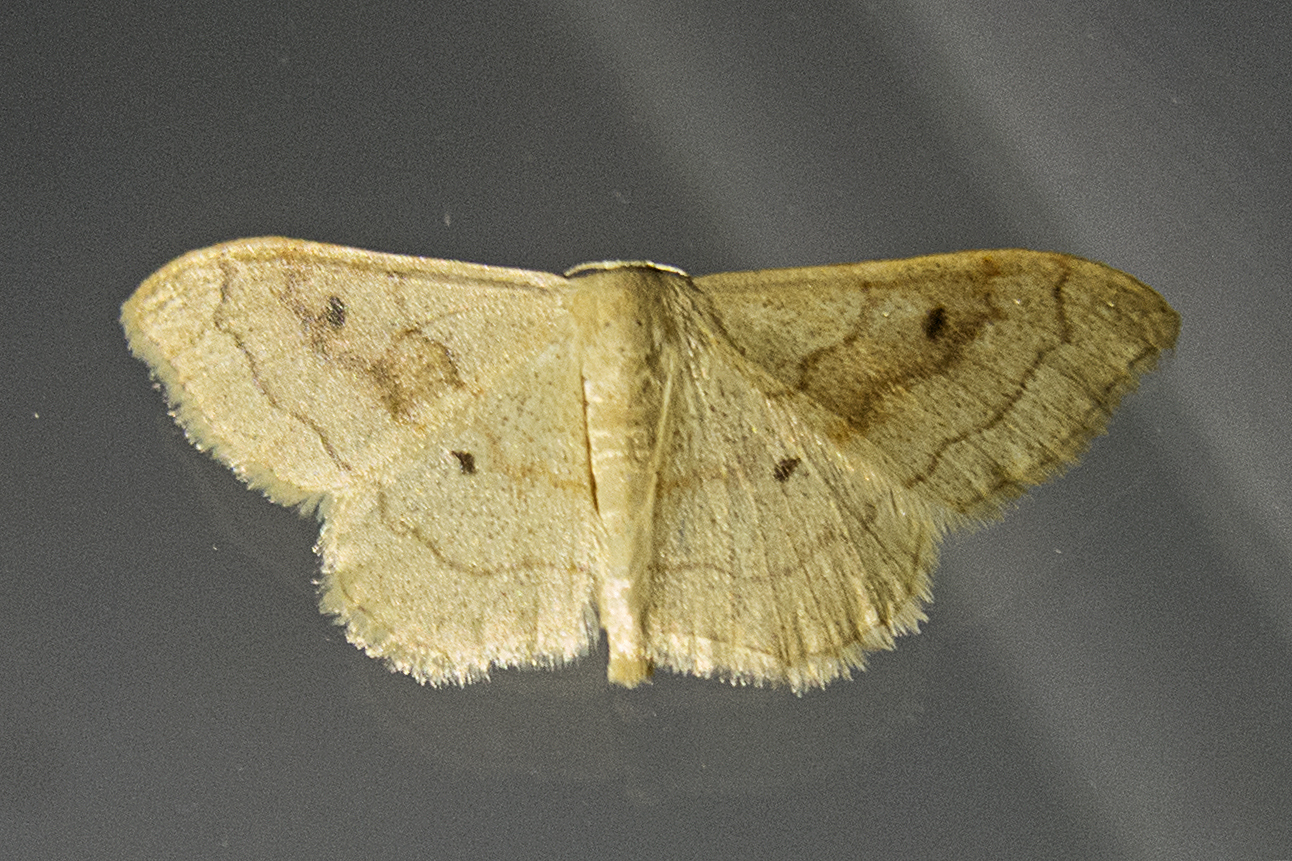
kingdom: Animalia
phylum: Arthropoda
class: Insecta
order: Lepidoptera
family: Geometridae
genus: Idaea
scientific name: Idaea bilinearia
